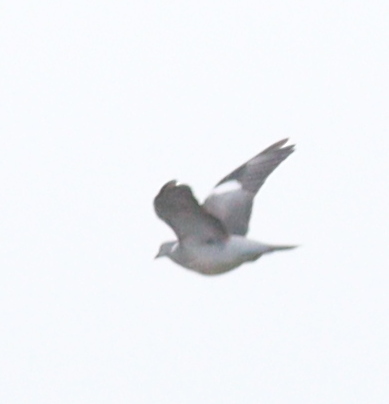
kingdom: Animalia
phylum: Chordata
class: Aves
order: Columbiformes
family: Columbidae
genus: Columba
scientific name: Columba palumbus
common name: Common wood pigeon
